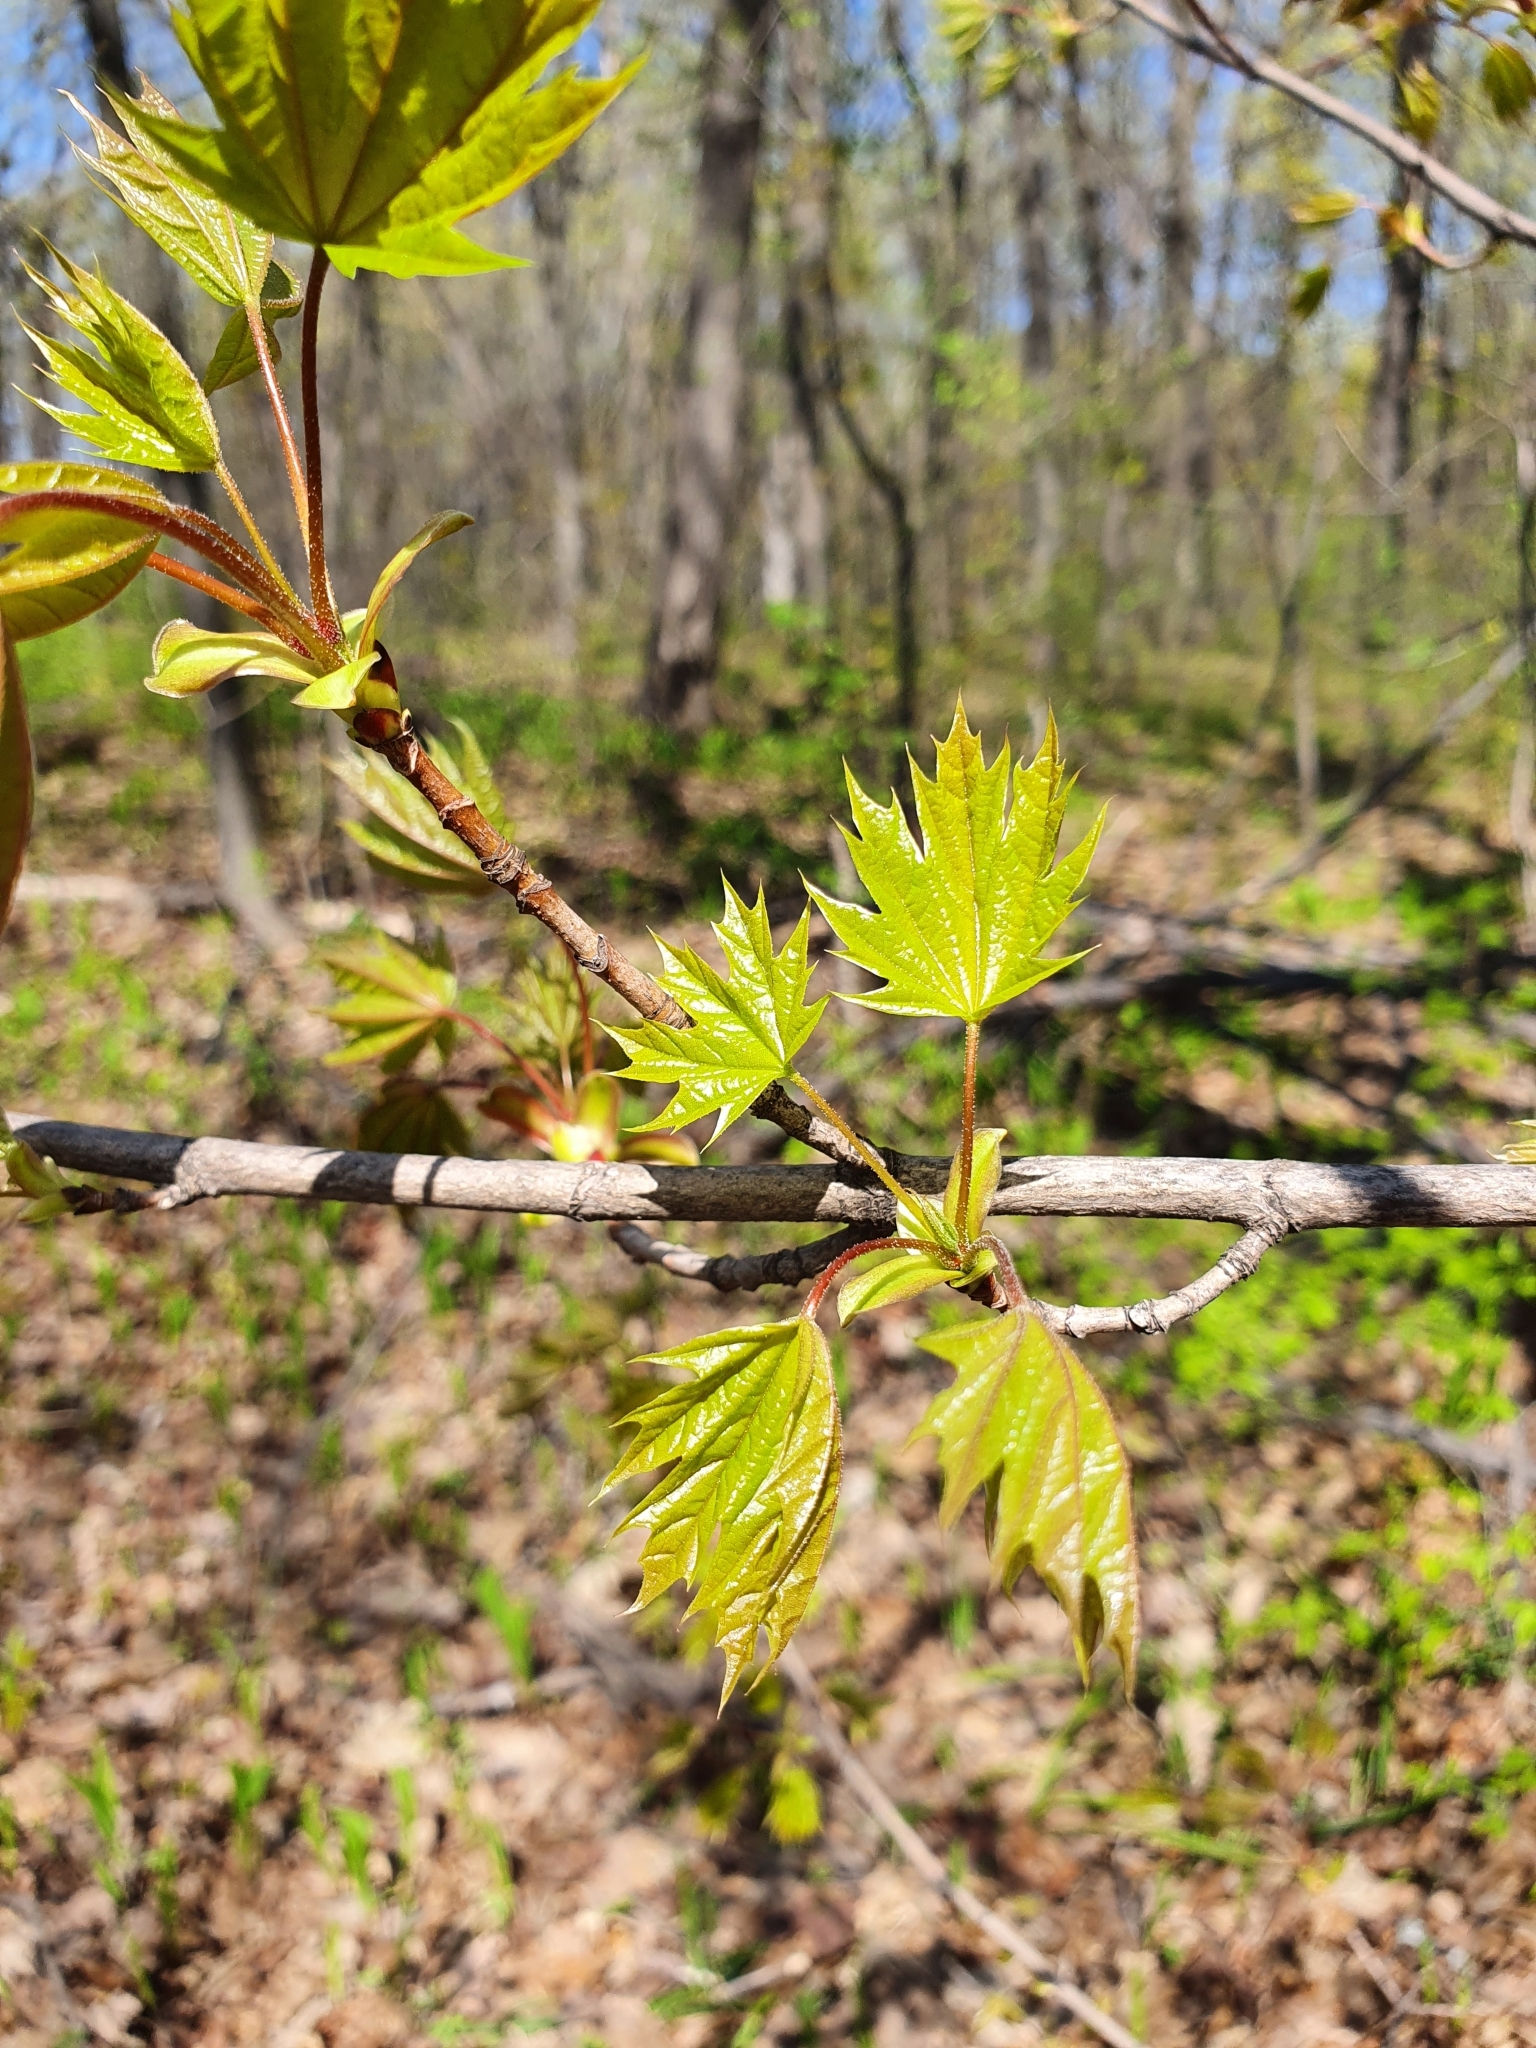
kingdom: Plantae
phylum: Tracheophyta
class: Magnoliopsida
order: Sapindales
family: Sapindaceae
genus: Acer
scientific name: Acer platanoides
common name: Norway maple
